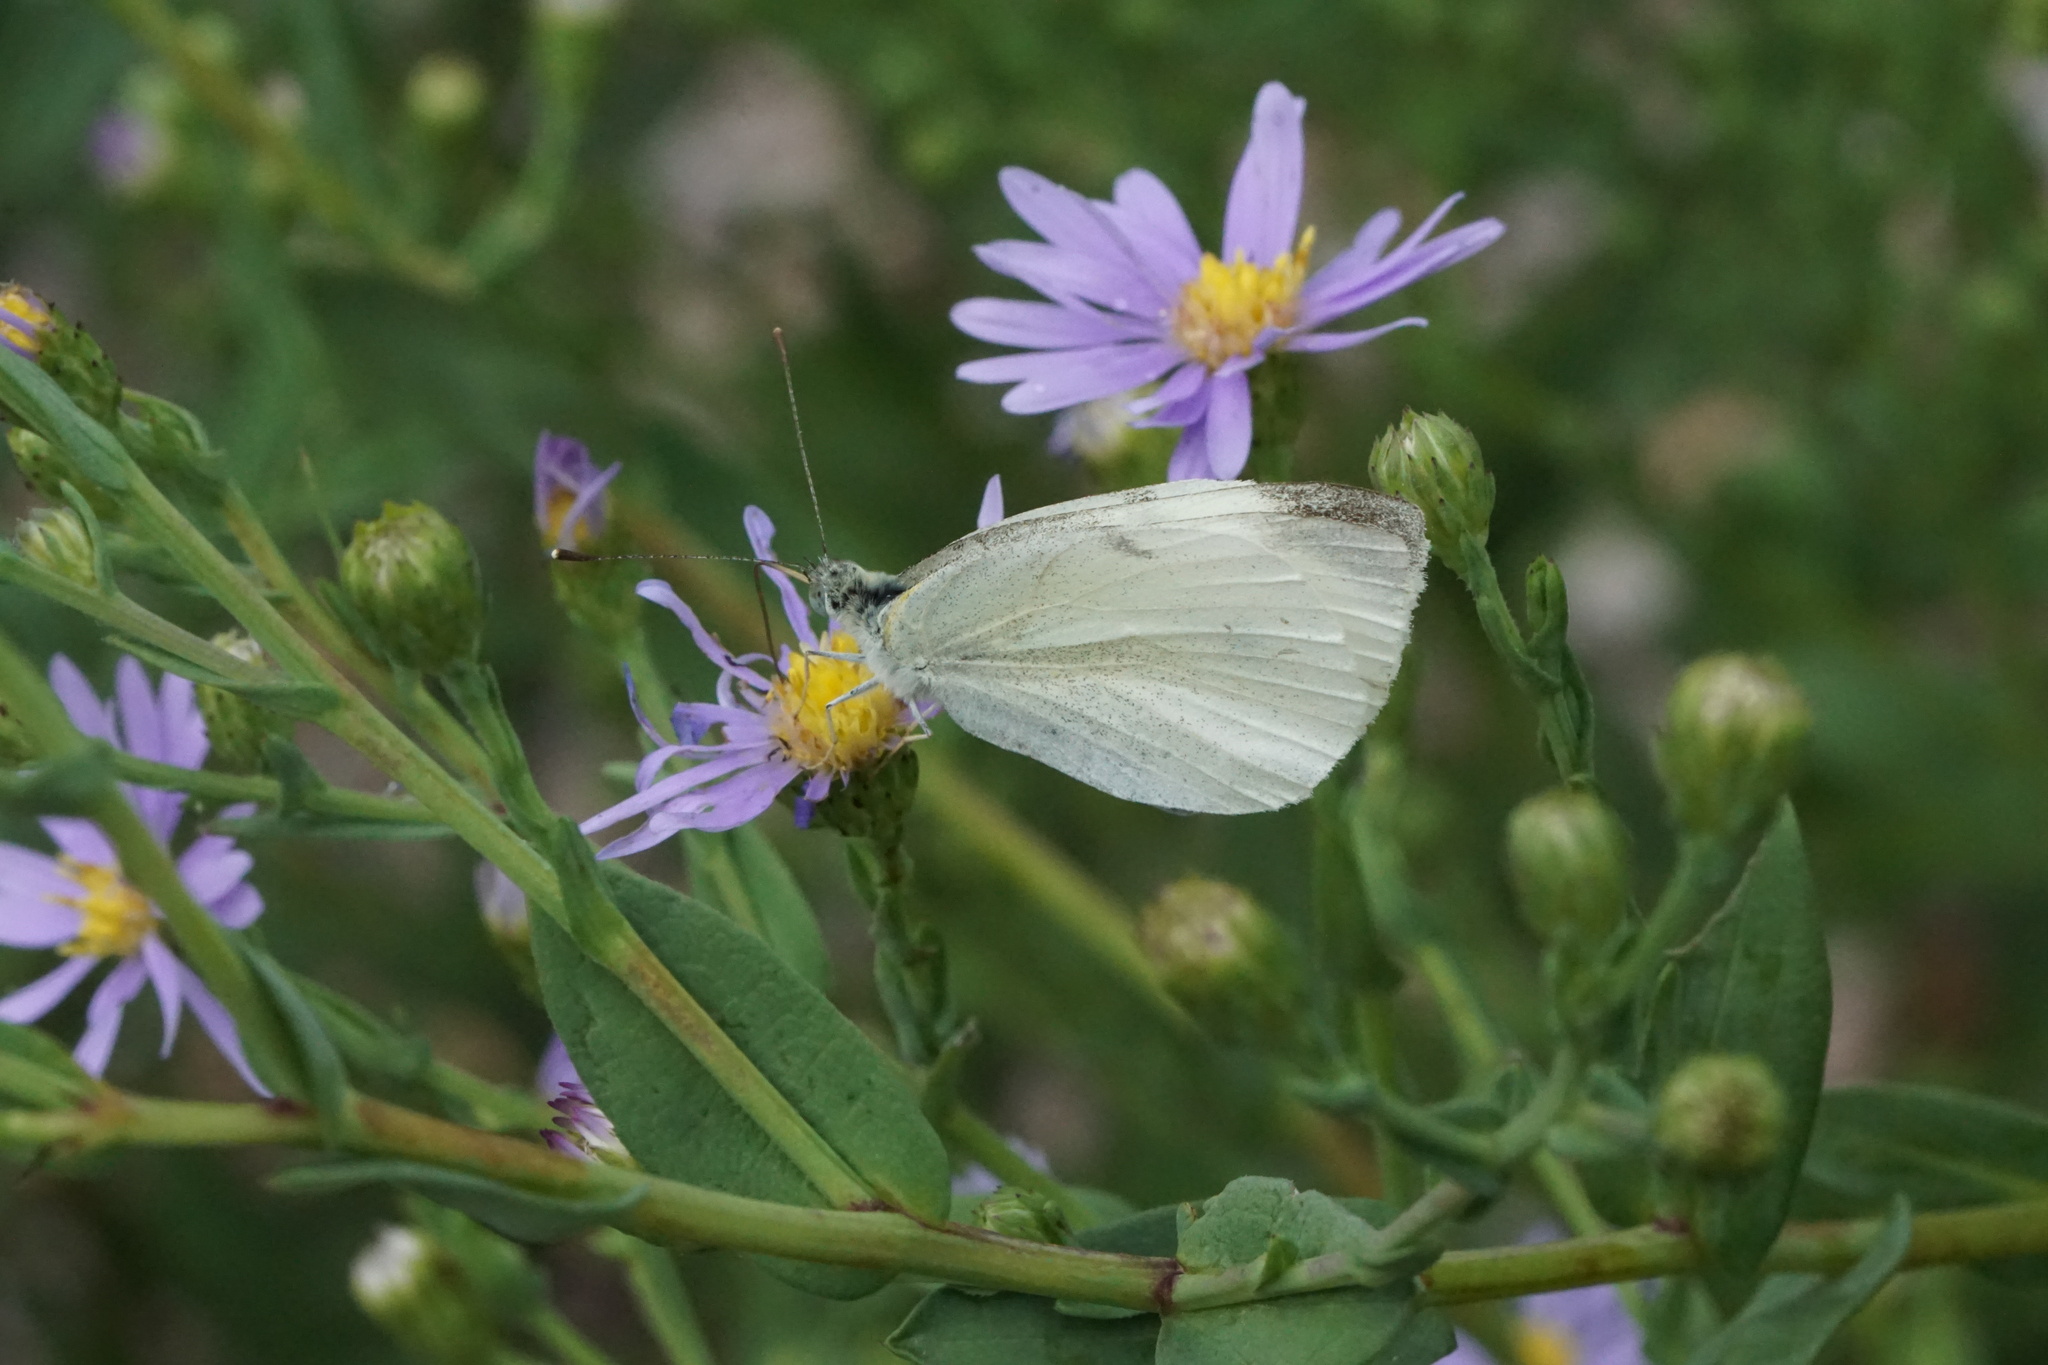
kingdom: Animalia
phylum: Arthropoda
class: Insecta
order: Lepidoptera
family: Pieridae
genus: Pieris
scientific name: Pieris rapae
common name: Small white
